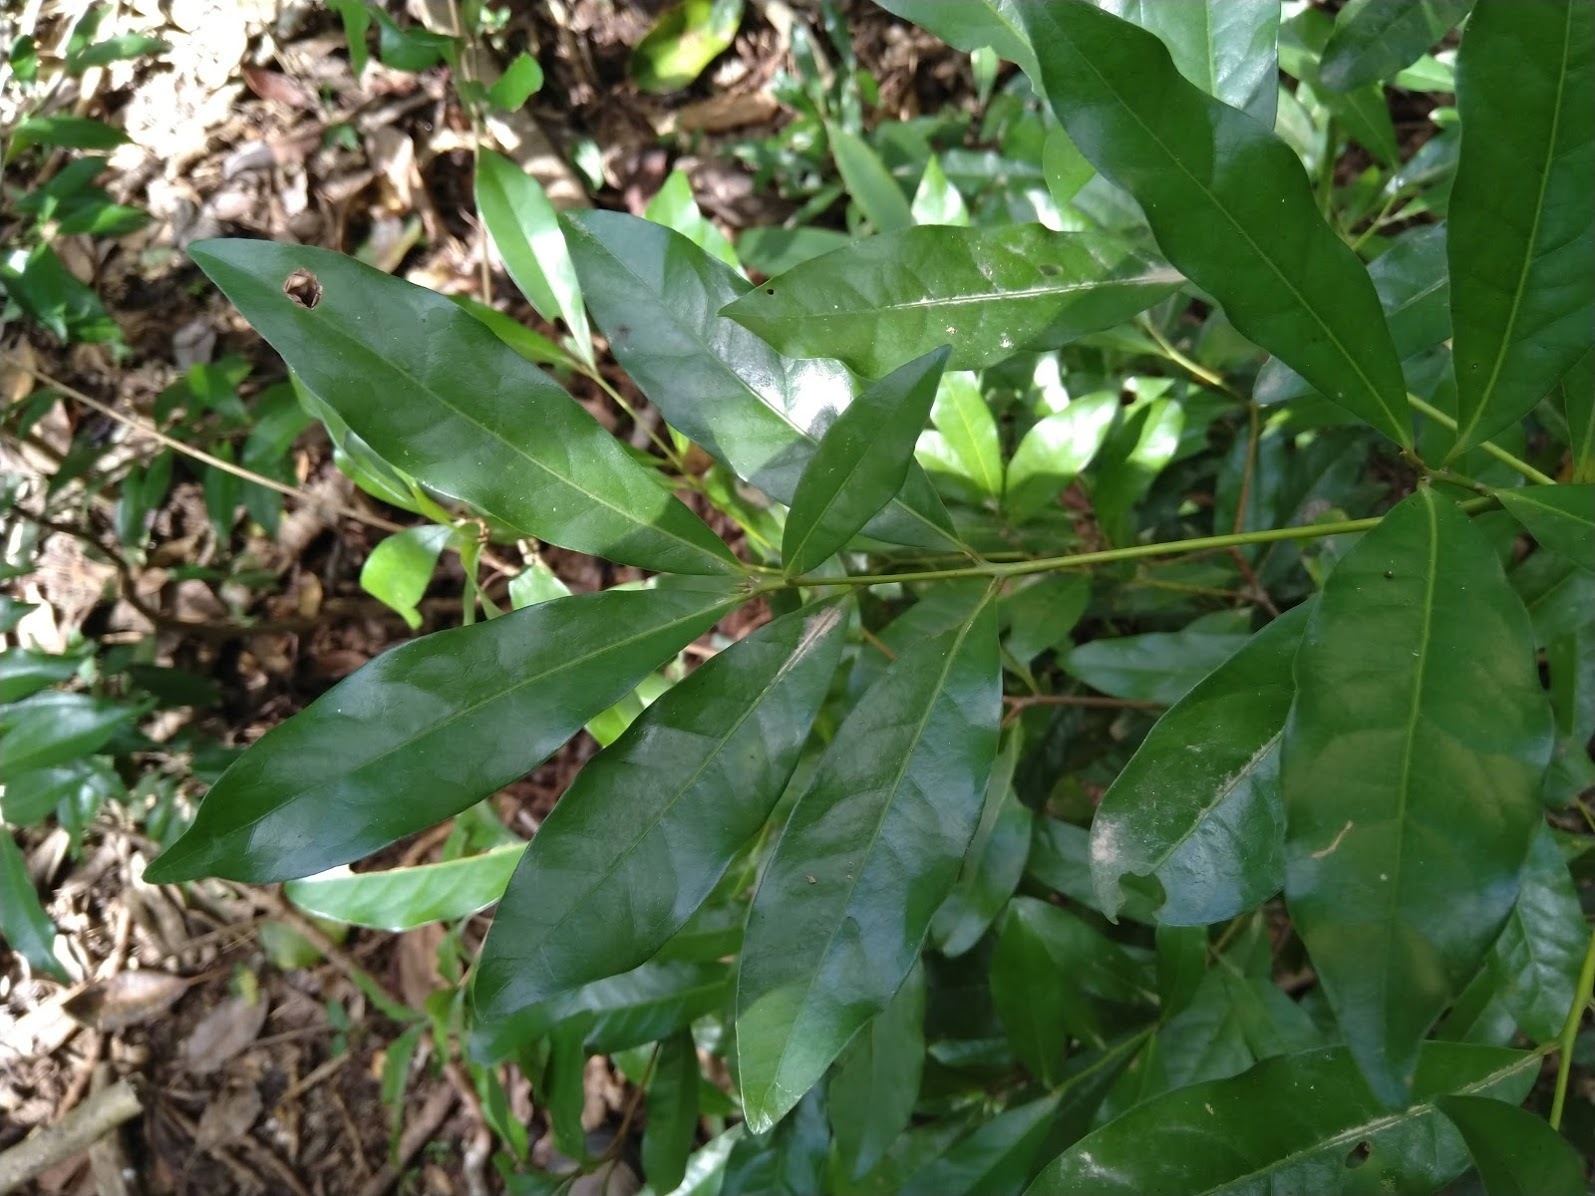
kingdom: Plantae
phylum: Tracheophyta
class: Magnoliopsida
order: Laurales
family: Lauraceae
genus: Beilschmiedia
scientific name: Beilschmiedia obtusifolia
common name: Queensland-sassafras
